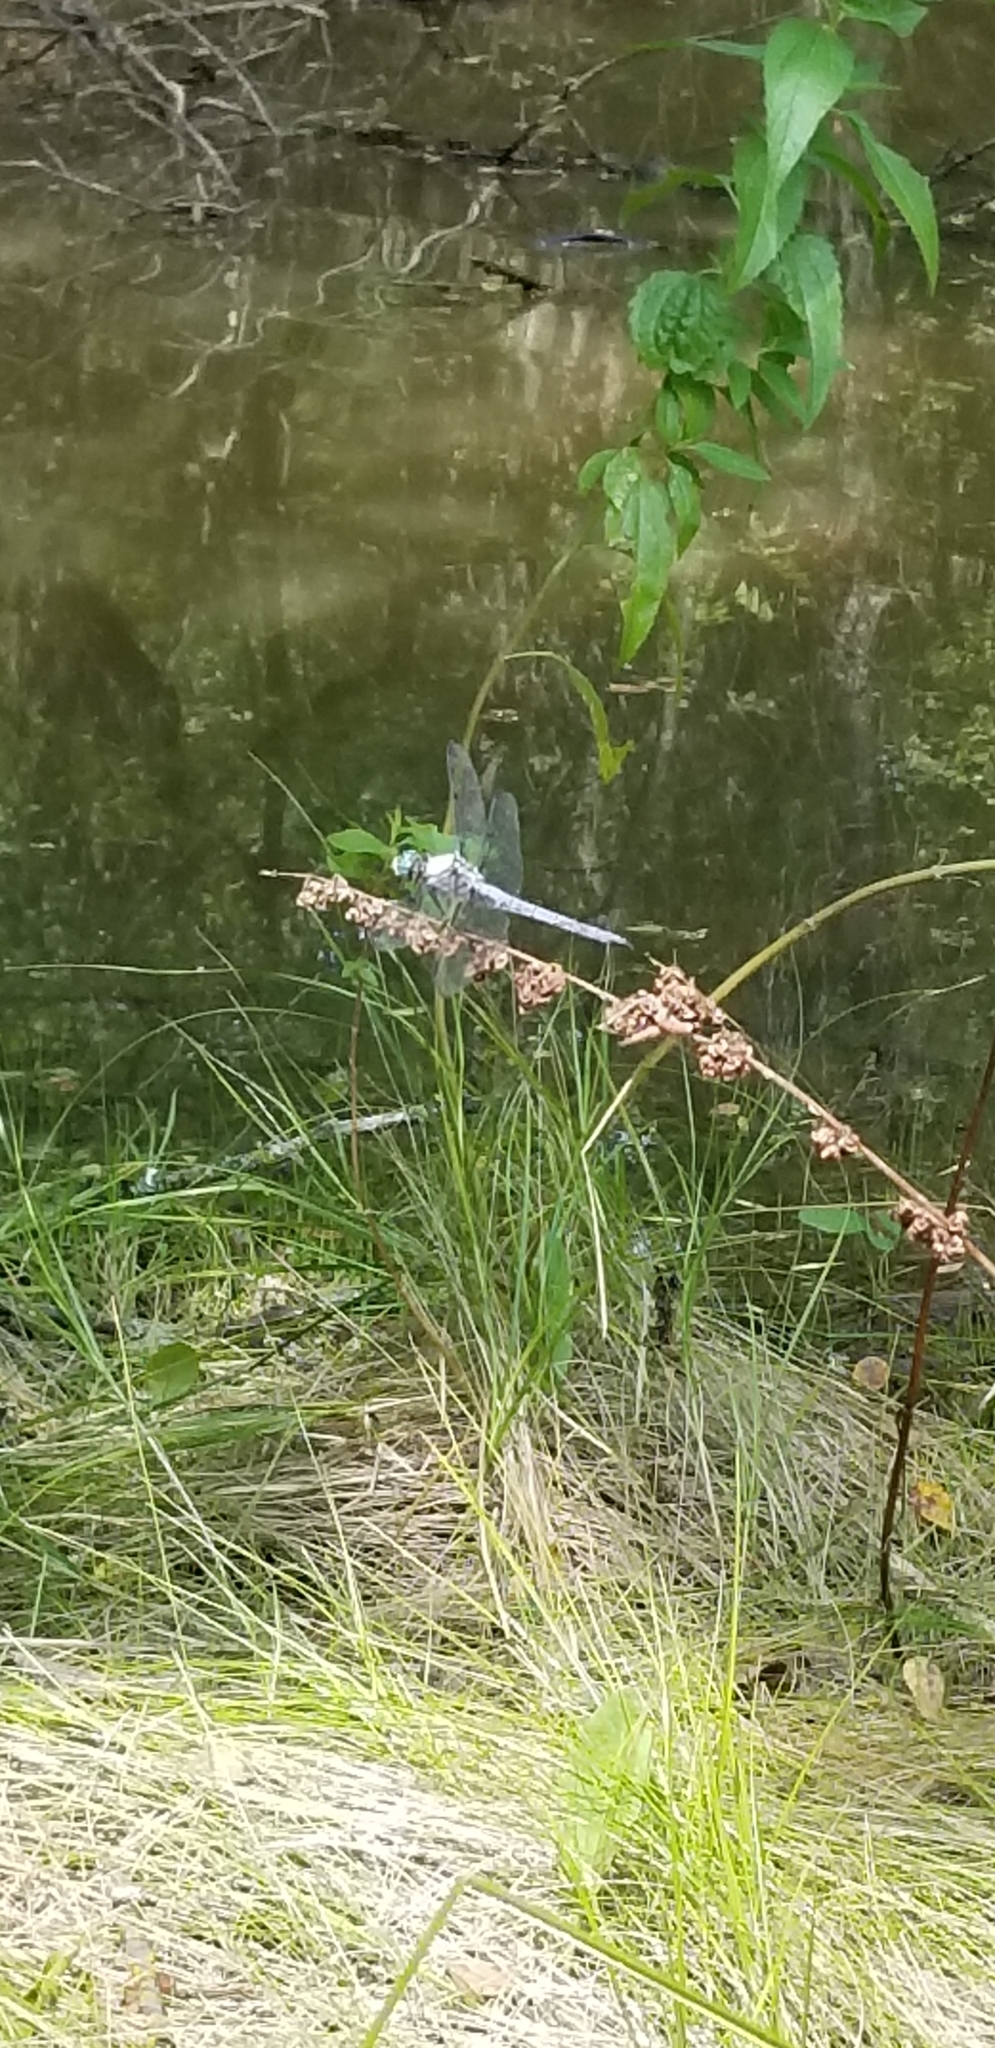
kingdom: Animalia
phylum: Arthropoda
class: Insecta
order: Odonata
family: Libellulidae
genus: Libellula
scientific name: Libellula vibrans
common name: Great blue skimmer
